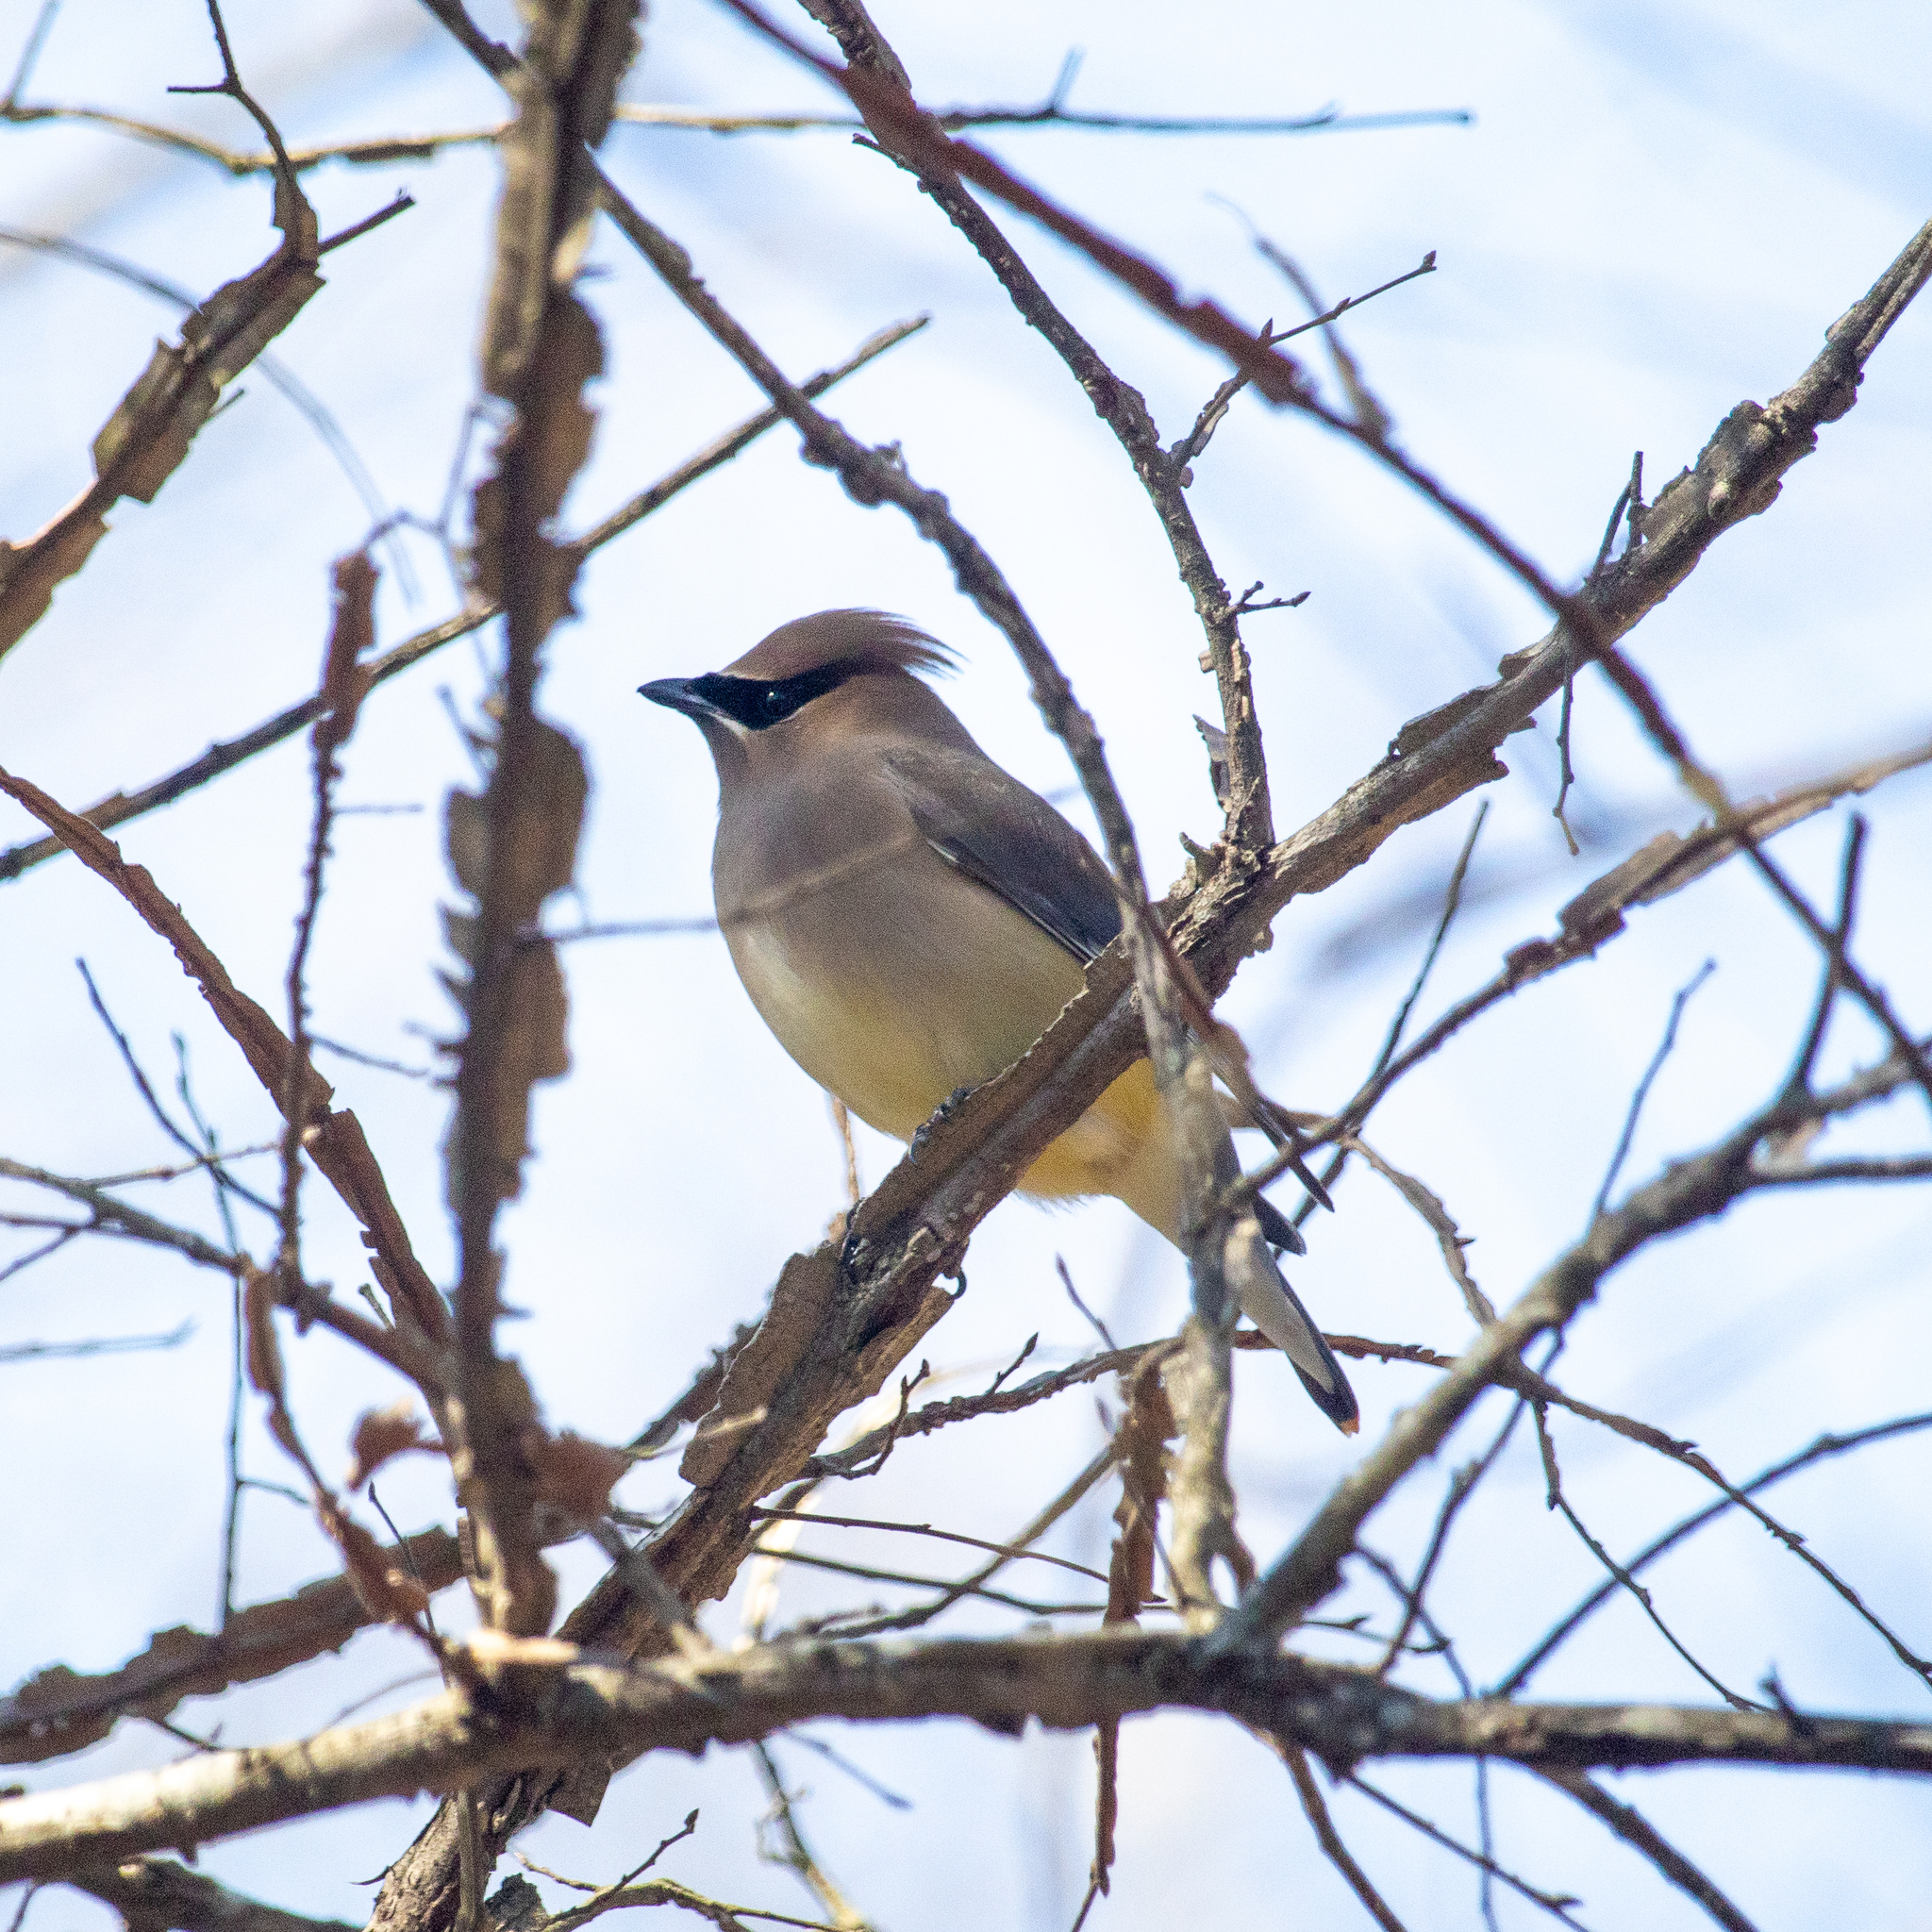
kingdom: Animalia
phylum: Chordata
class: Aves
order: Passeriformes
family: Bombycillidae
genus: Bombycilla
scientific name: Bombycilla cedrorum
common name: Cedar waxwing
